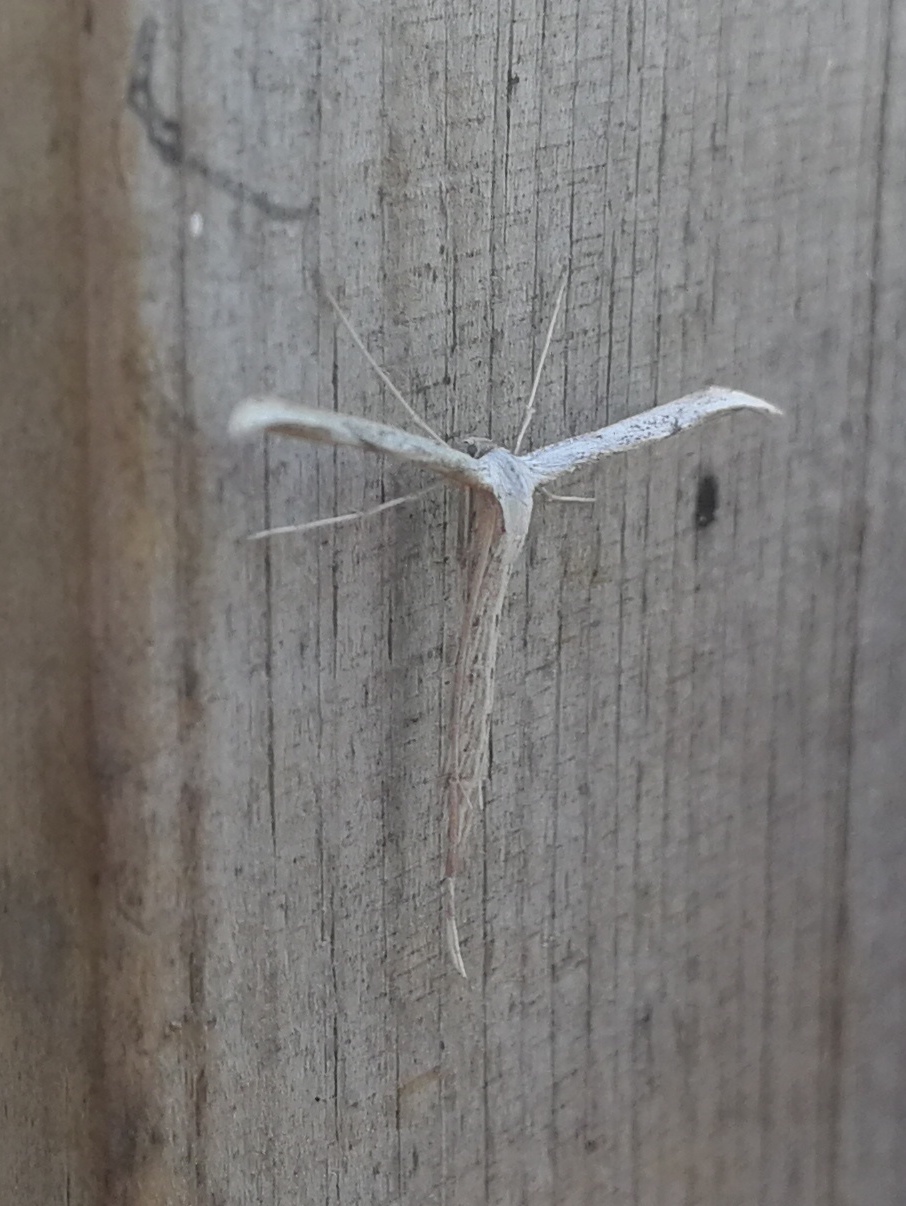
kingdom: Animalia
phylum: Arthropoda
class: Insecta
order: Lepidoptera
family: Pterophoridae
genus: Emmelina
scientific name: Emmelina monodactyla
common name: Common plume
